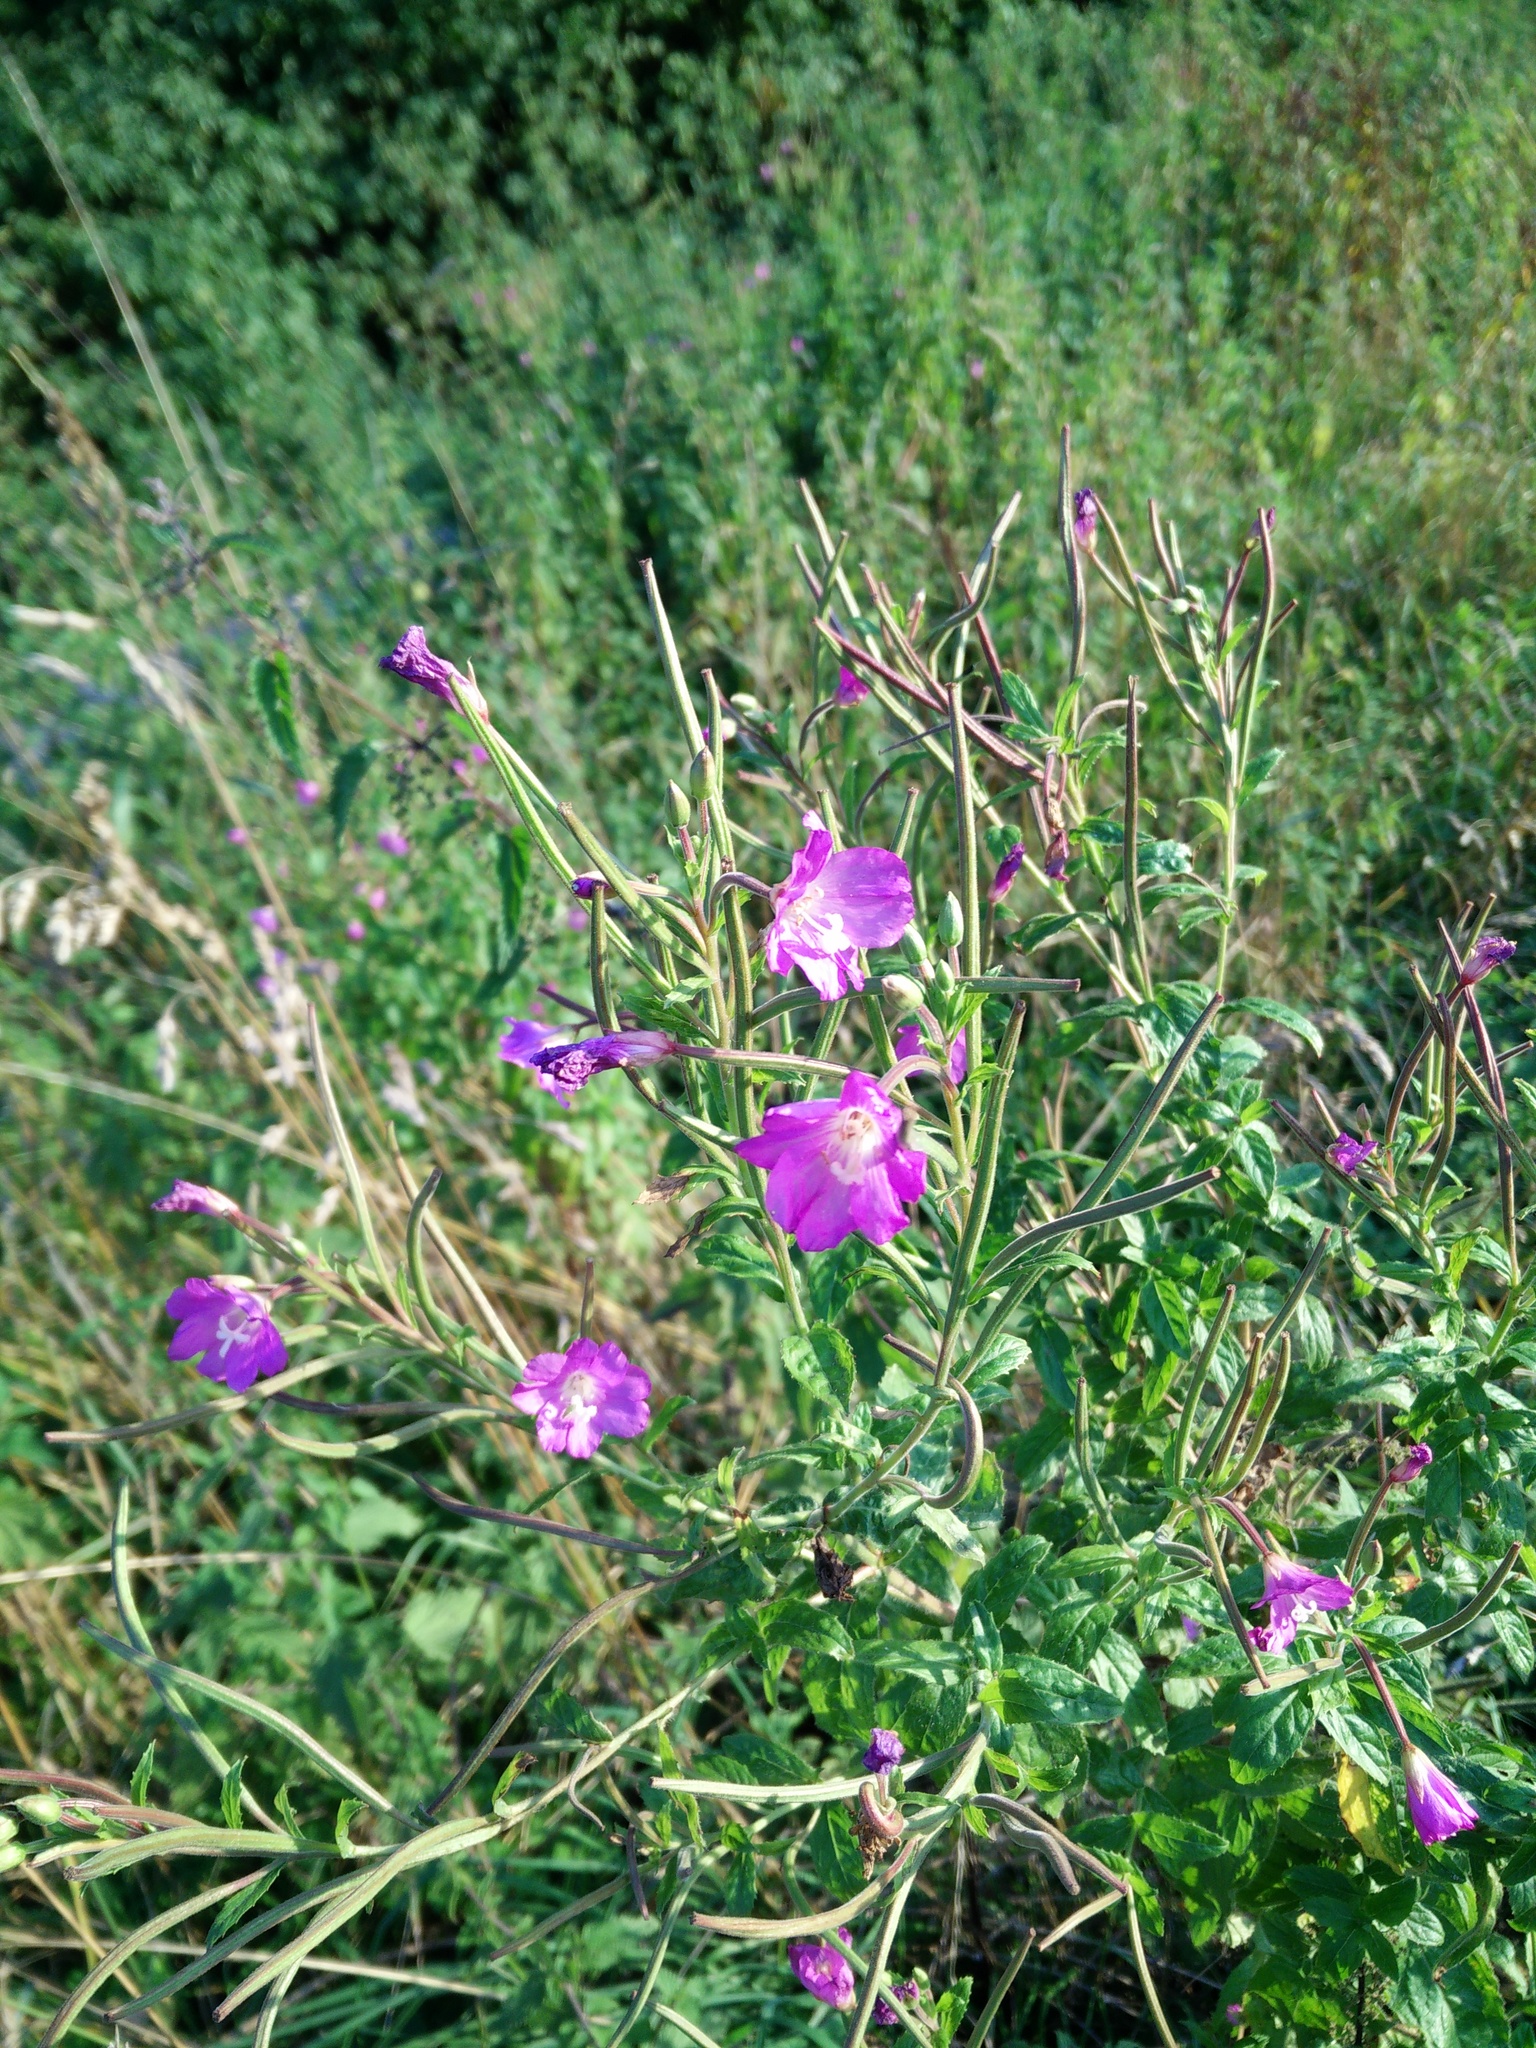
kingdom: Plantae
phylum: Tracheophyta
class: Magnoliopsida
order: Myrtales
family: Onagraceae
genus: Epilobium
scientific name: Epilobium hirsutum
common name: Great willowherb
